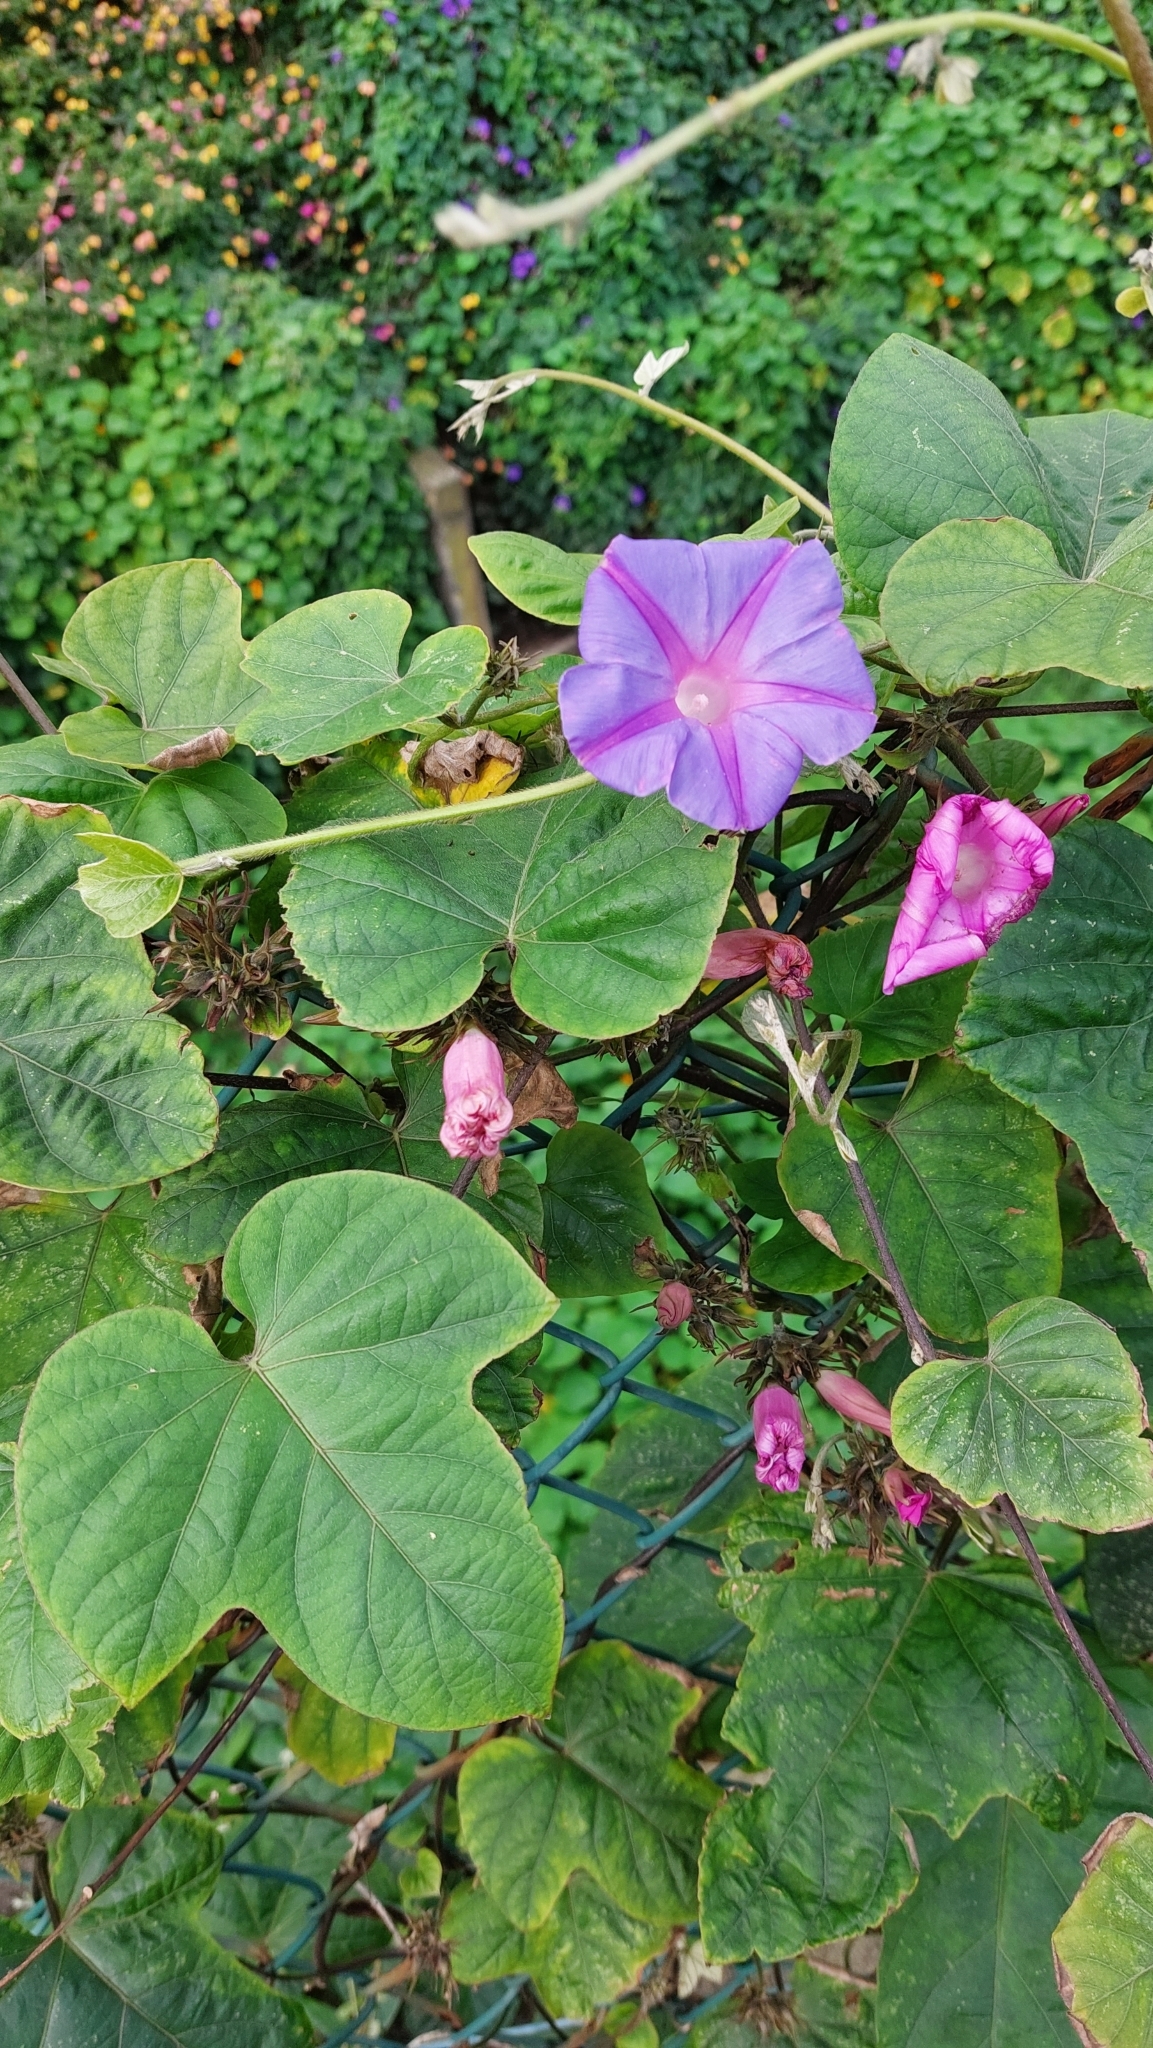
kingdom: Plantae
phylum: Tracheophyta
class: Magnoliopsida
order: Solanales
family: Convolvulaceae
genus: Ipomoea
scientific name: Ipomoea indica
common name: Blue dawnflower
